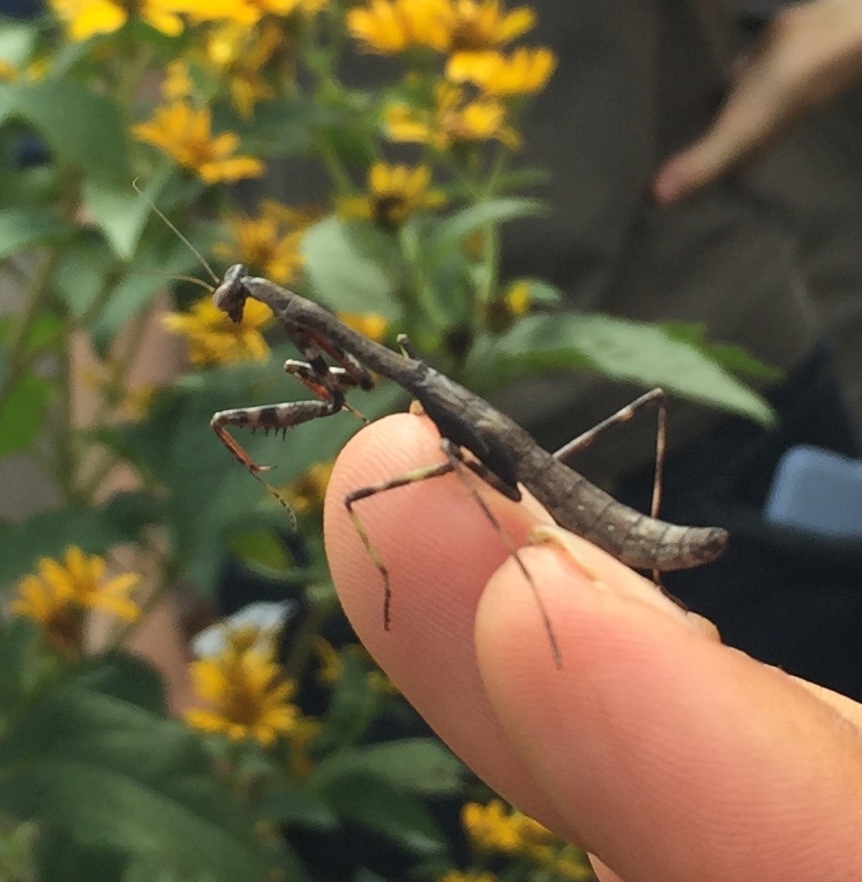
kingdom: Animalia
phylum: Arthropoda
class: Insecta
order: Mantodea
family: Mantidae
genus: Stagmomantis
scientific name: Stagmomantis carolina
